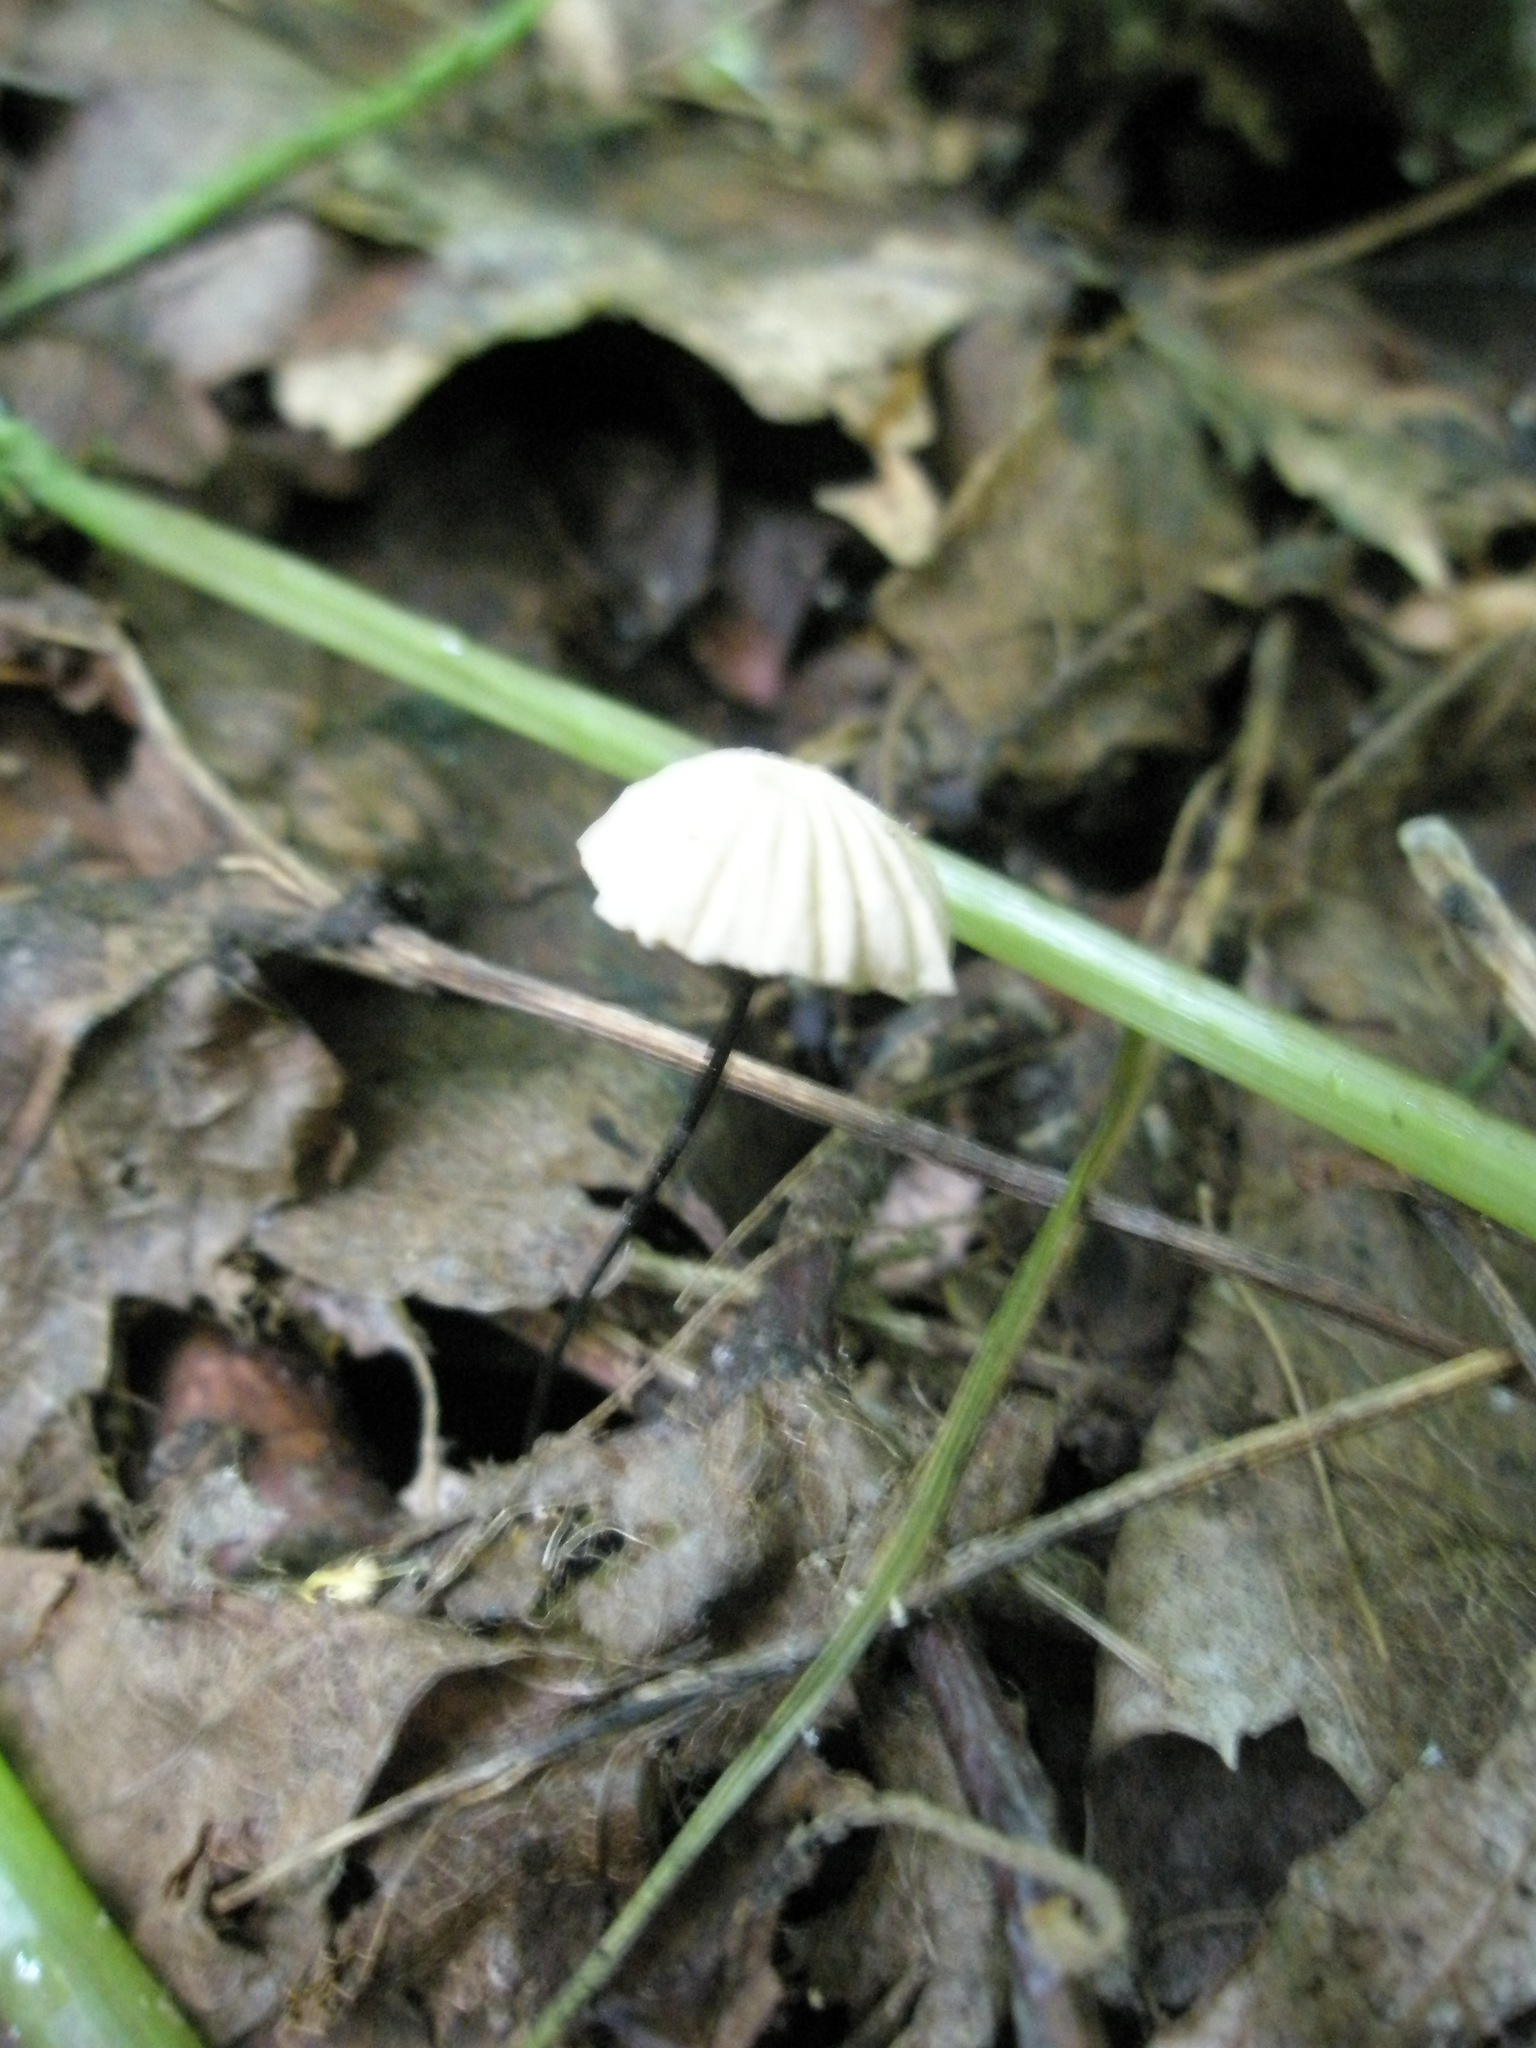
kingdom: Fungi
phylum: Basidiomycota
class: Agaricomycetes
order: Agaricales
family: Marasmiaceae
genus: Marasmius
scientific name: Marasmius capillaris
